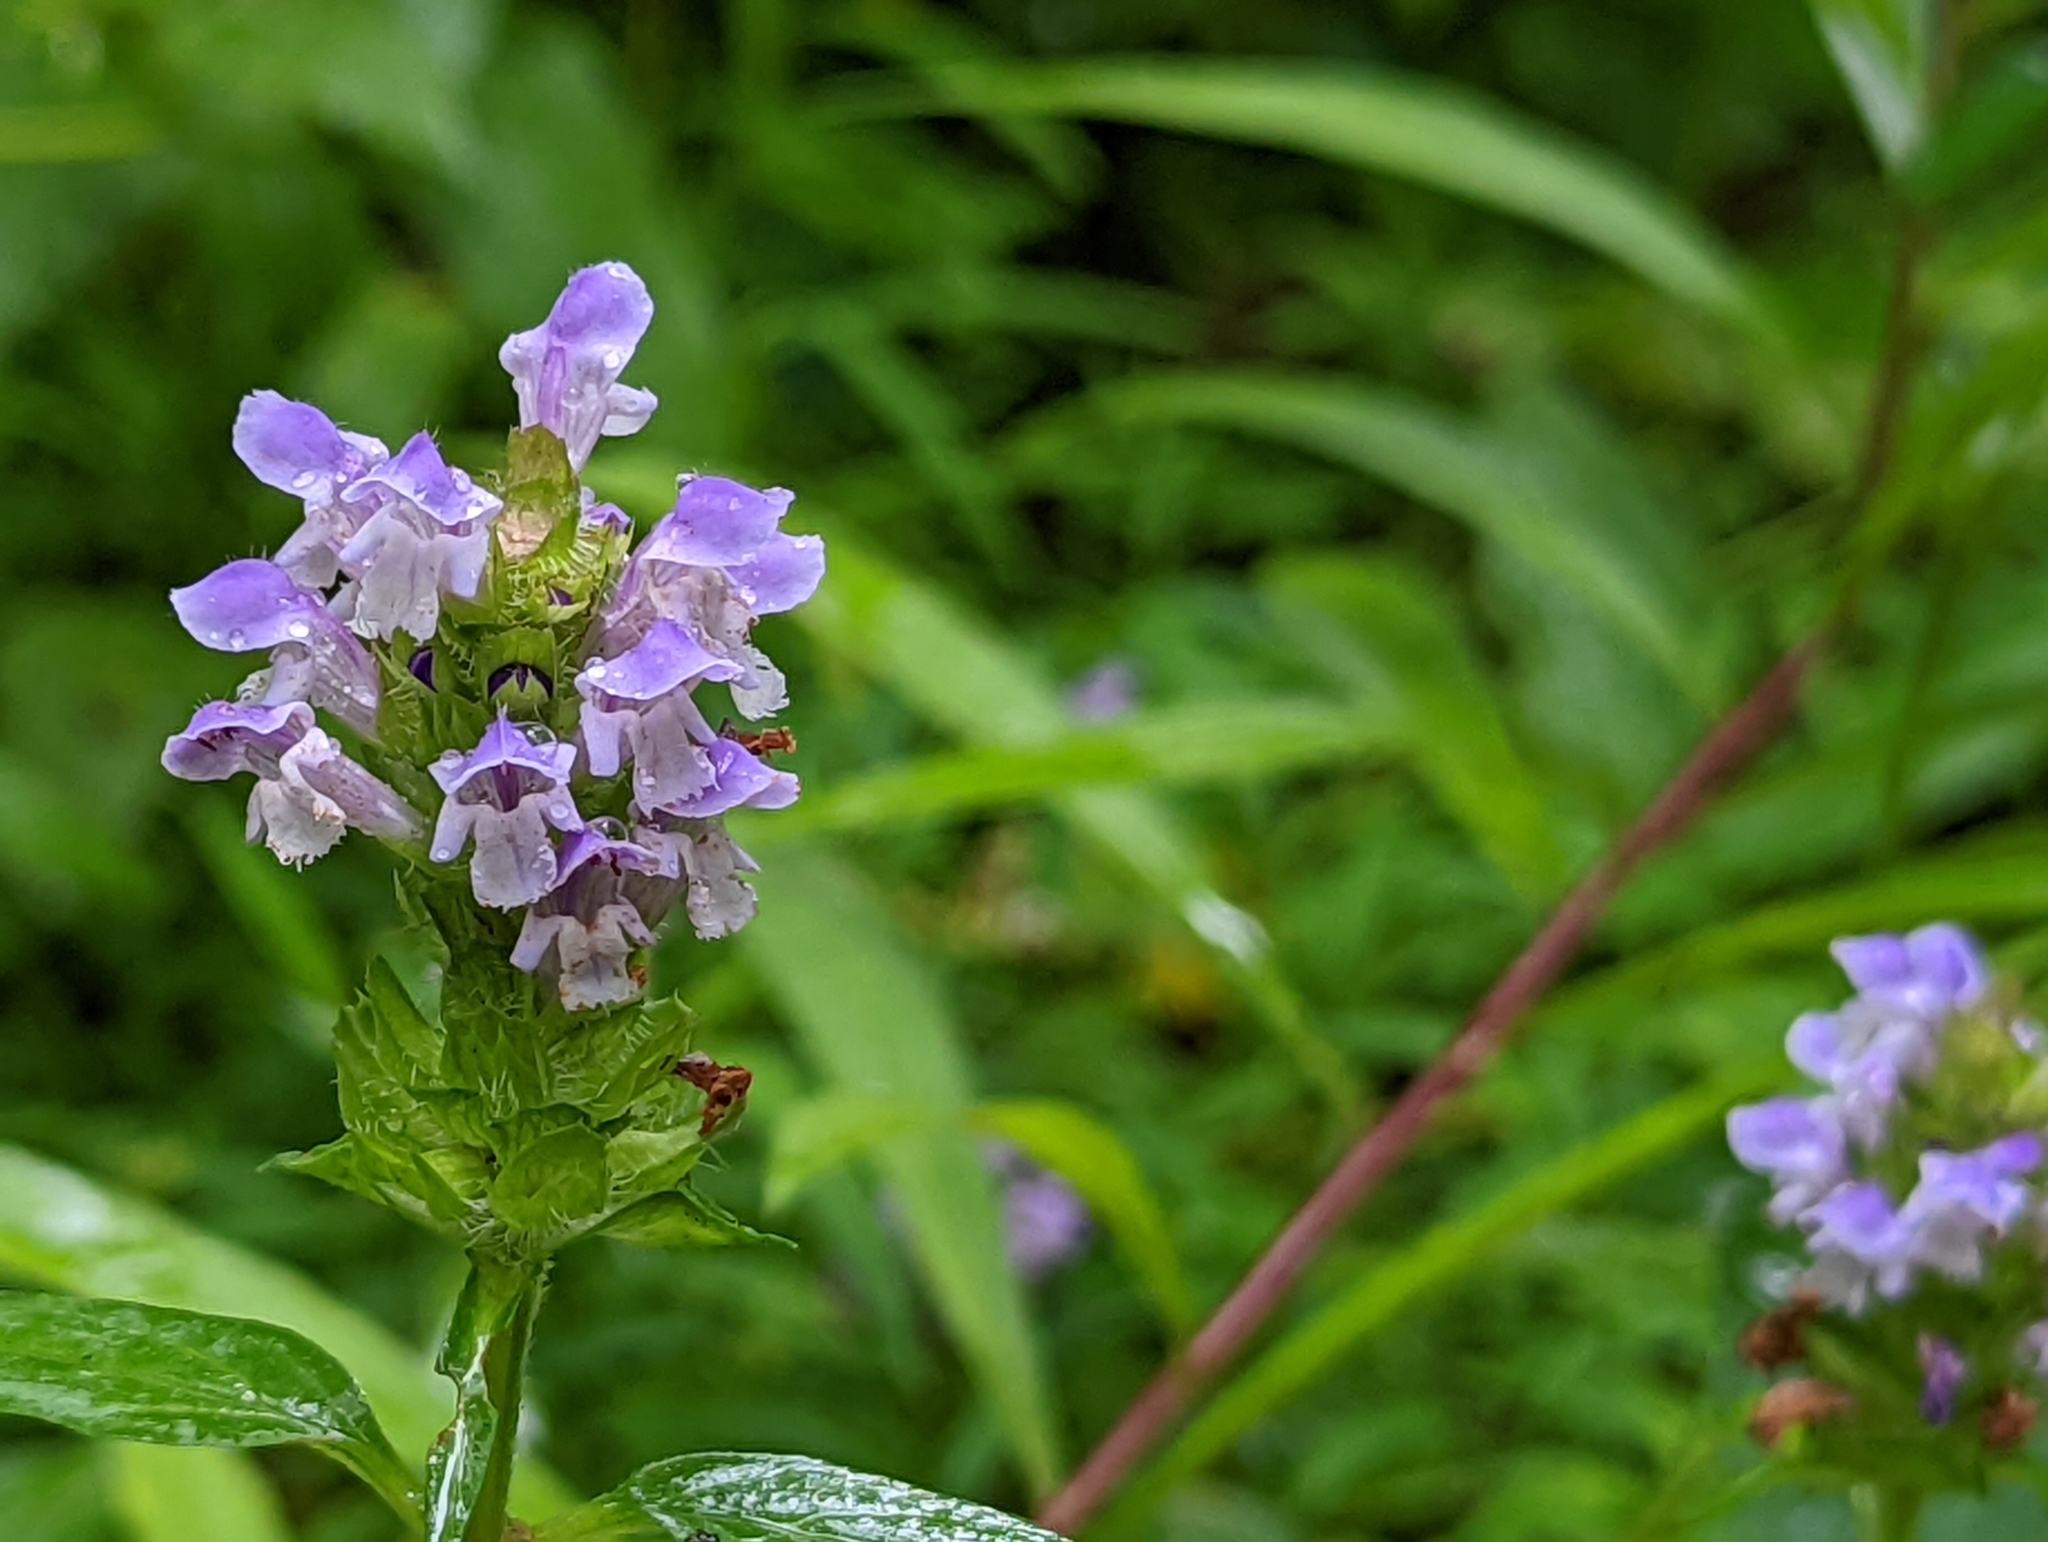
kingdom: Plantae
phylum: Tracheophyta
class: Magnoliopsida
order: Lamiales
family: Lamiaceae
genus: Prunella
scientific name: Prunella vulgaris
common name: Heal-all
